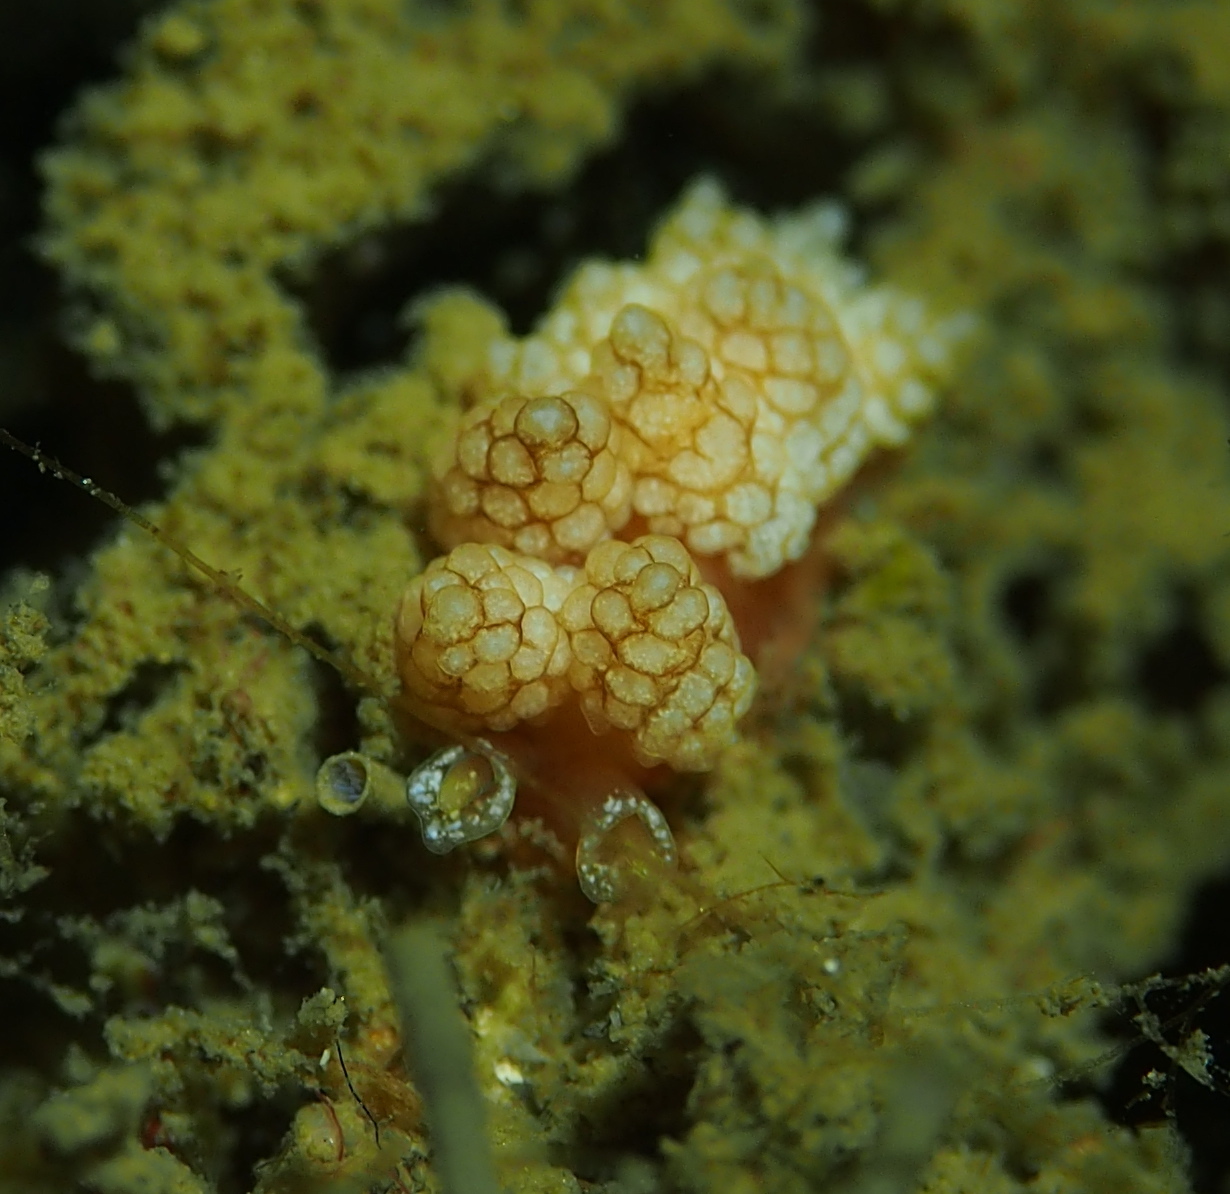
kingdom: Animalia
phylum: Mollusca
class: Gastropoda
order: Nudibranchia
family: Dotidae
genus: Doto
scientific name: Doto fragilis
